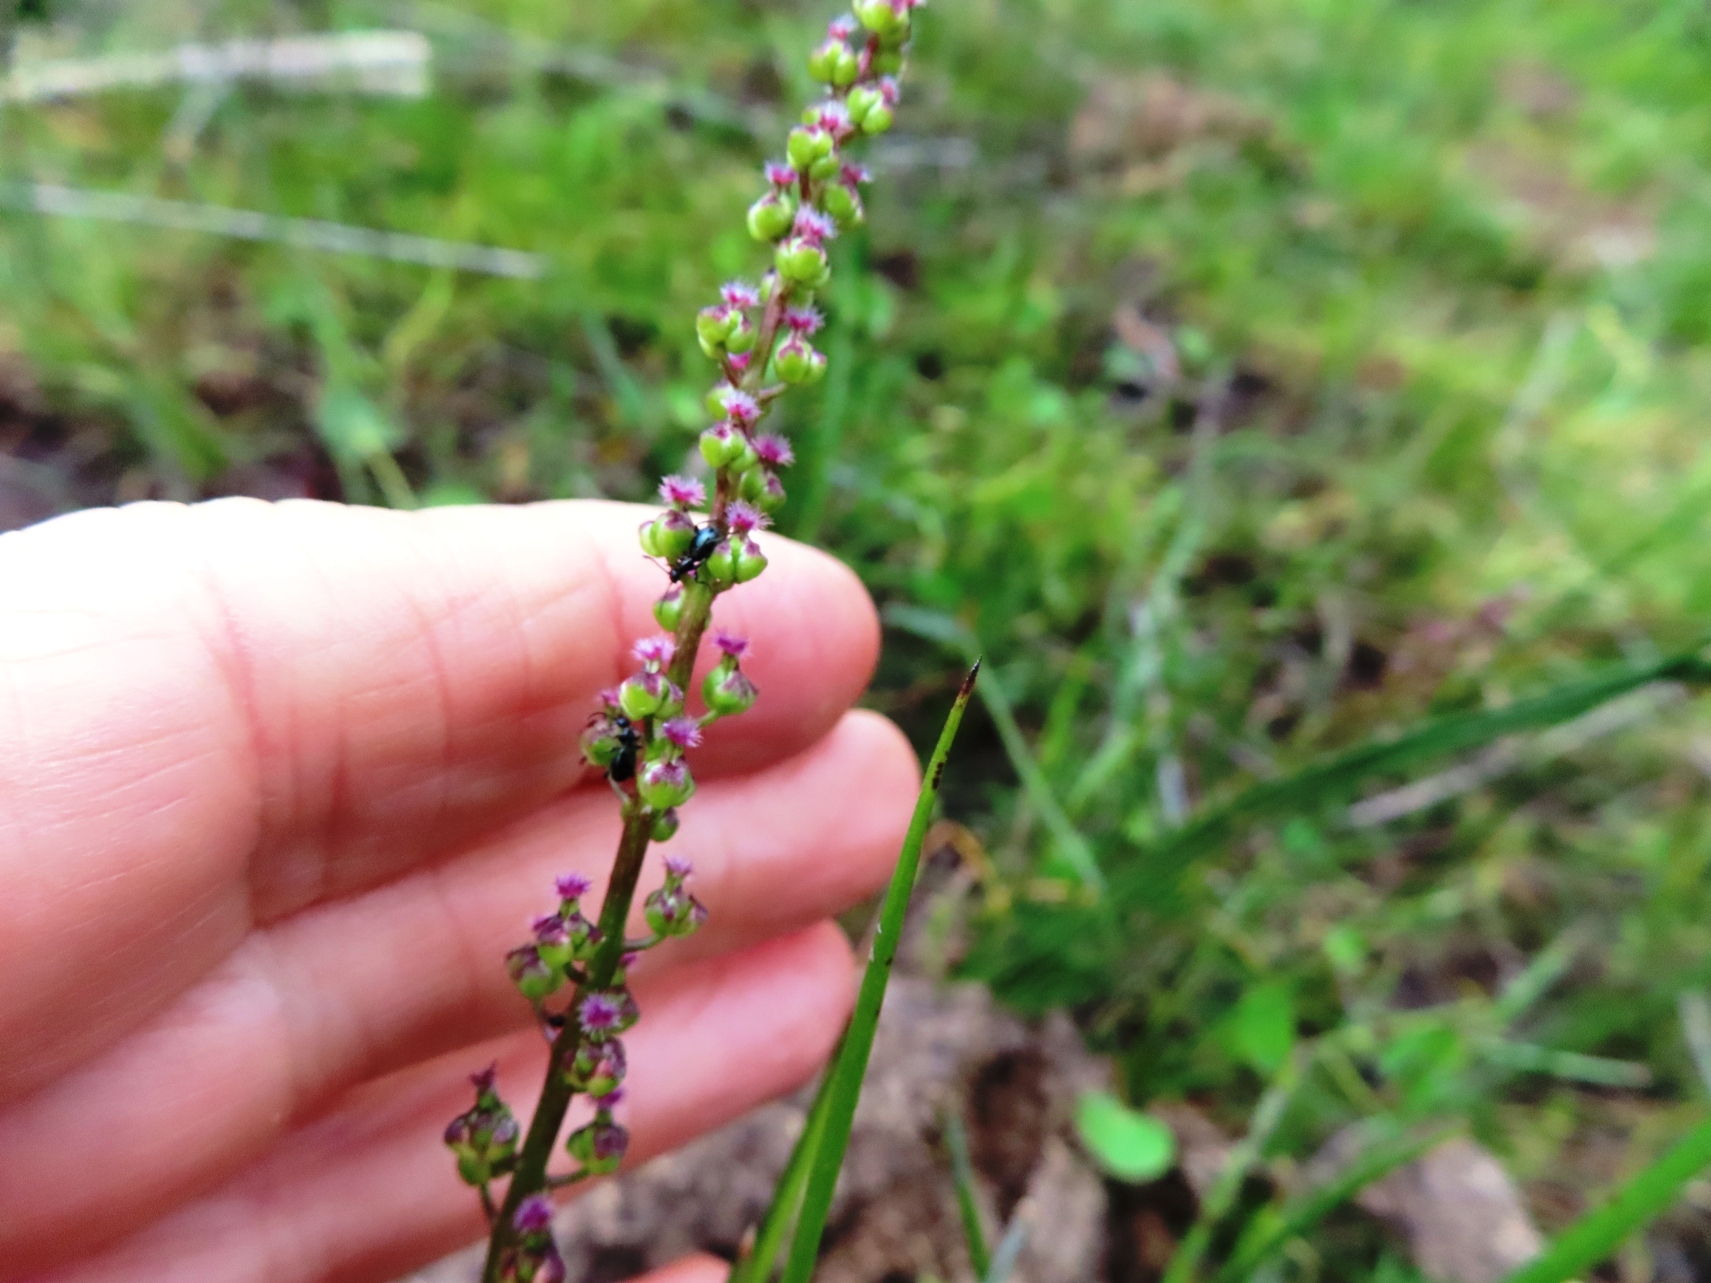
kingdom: Plantae
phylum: Tracheophyta
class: Liliopsida
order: Alismatales
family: Juncaginaceae
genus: Triglochin
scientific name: Triglochin bulbosa
